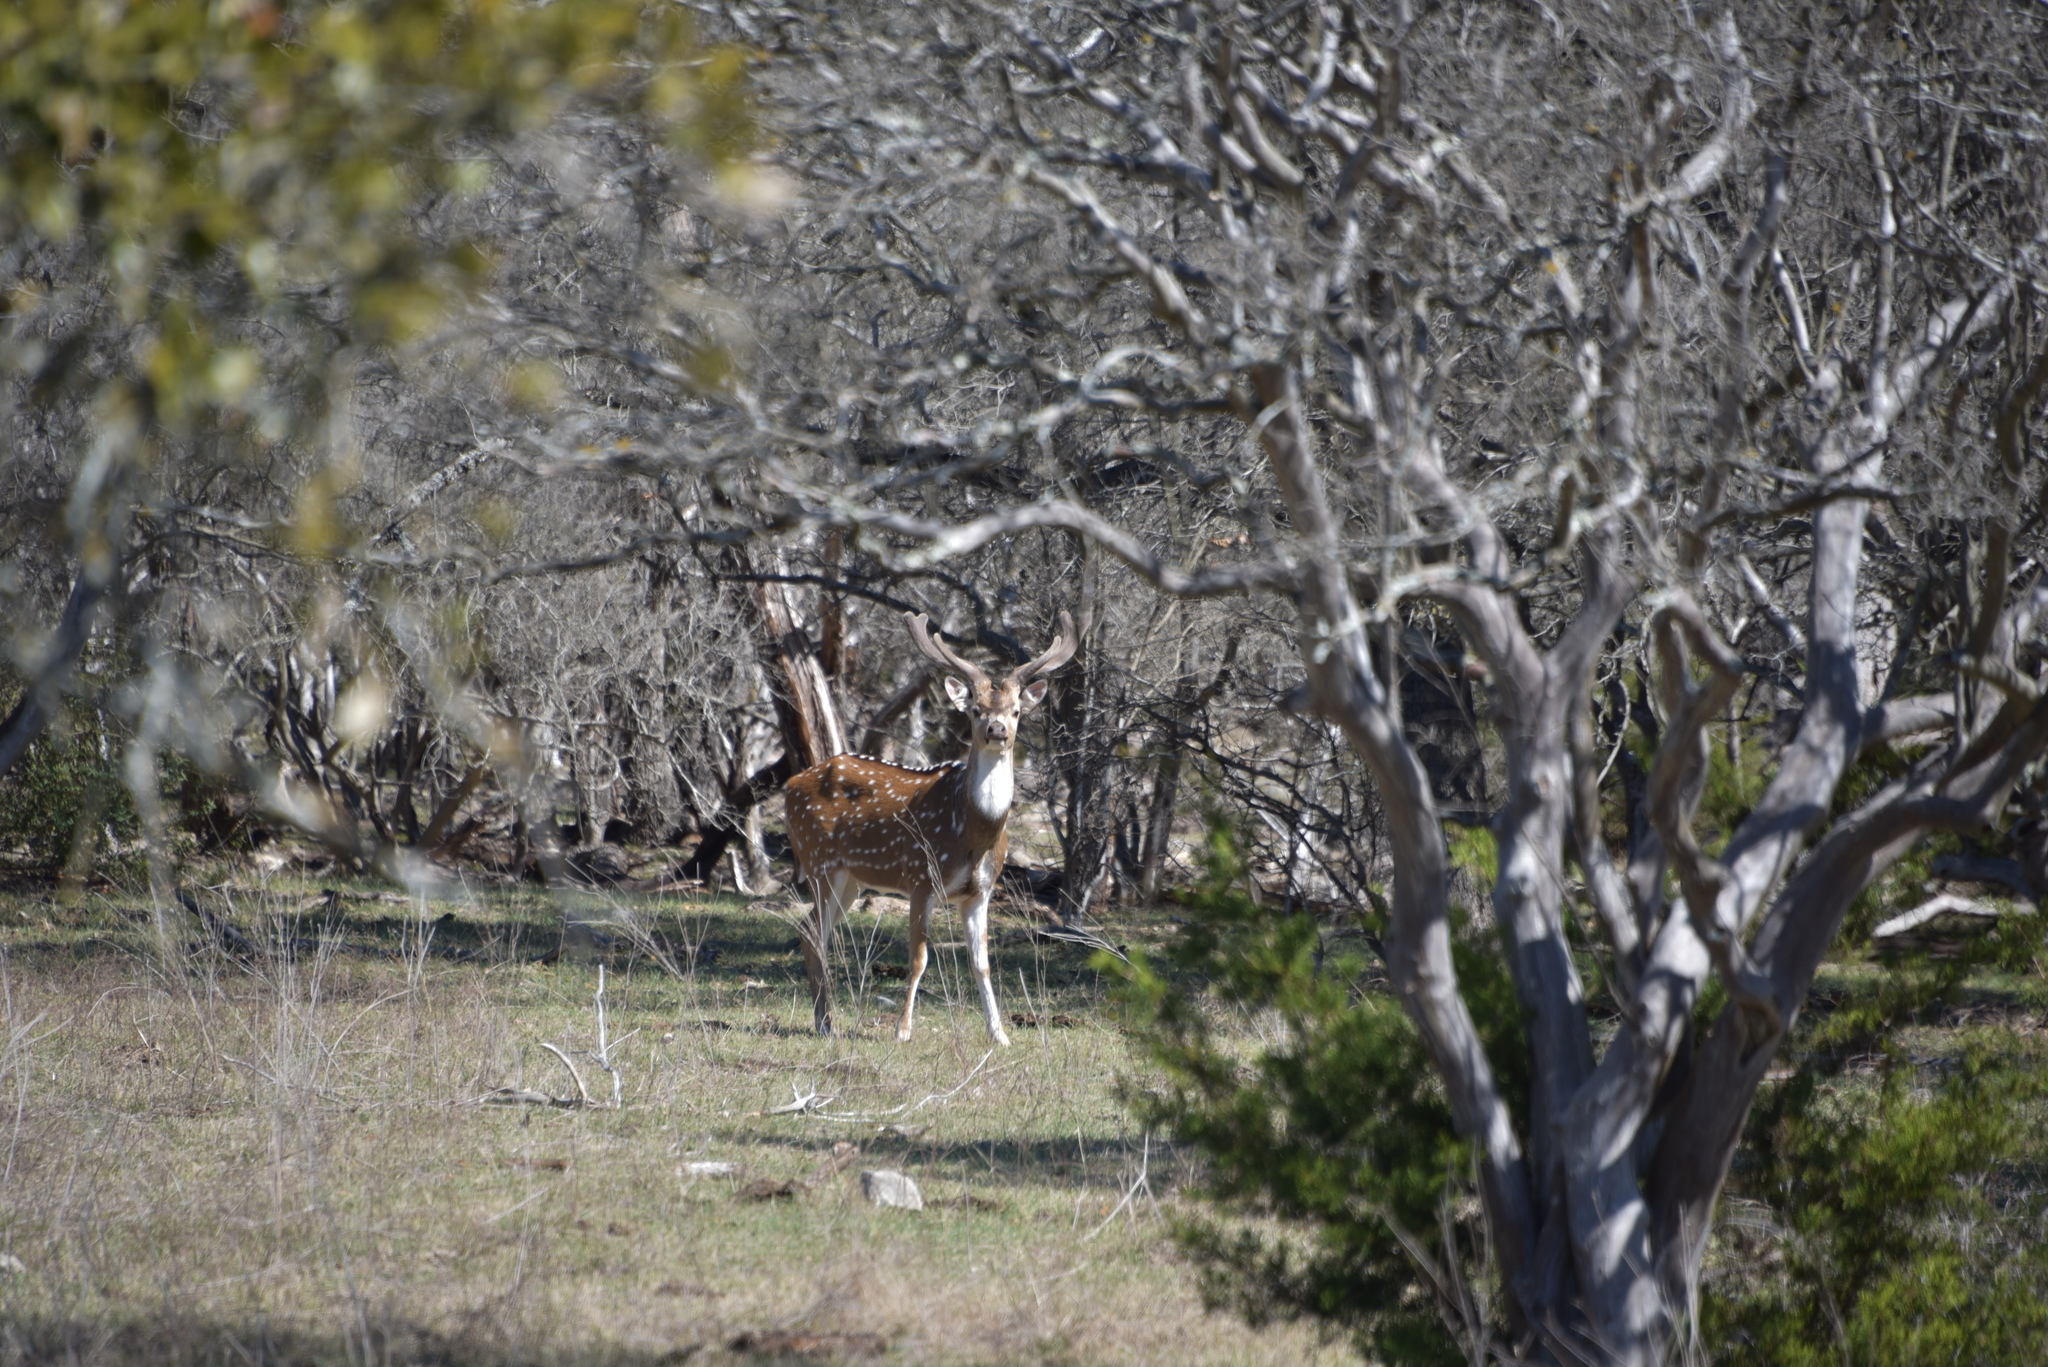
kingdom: Animalia
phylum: Chordata
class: Mammalia
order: Artiodactyla
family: Cervidae
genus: Axis
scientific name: Axis axis
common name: Chital
